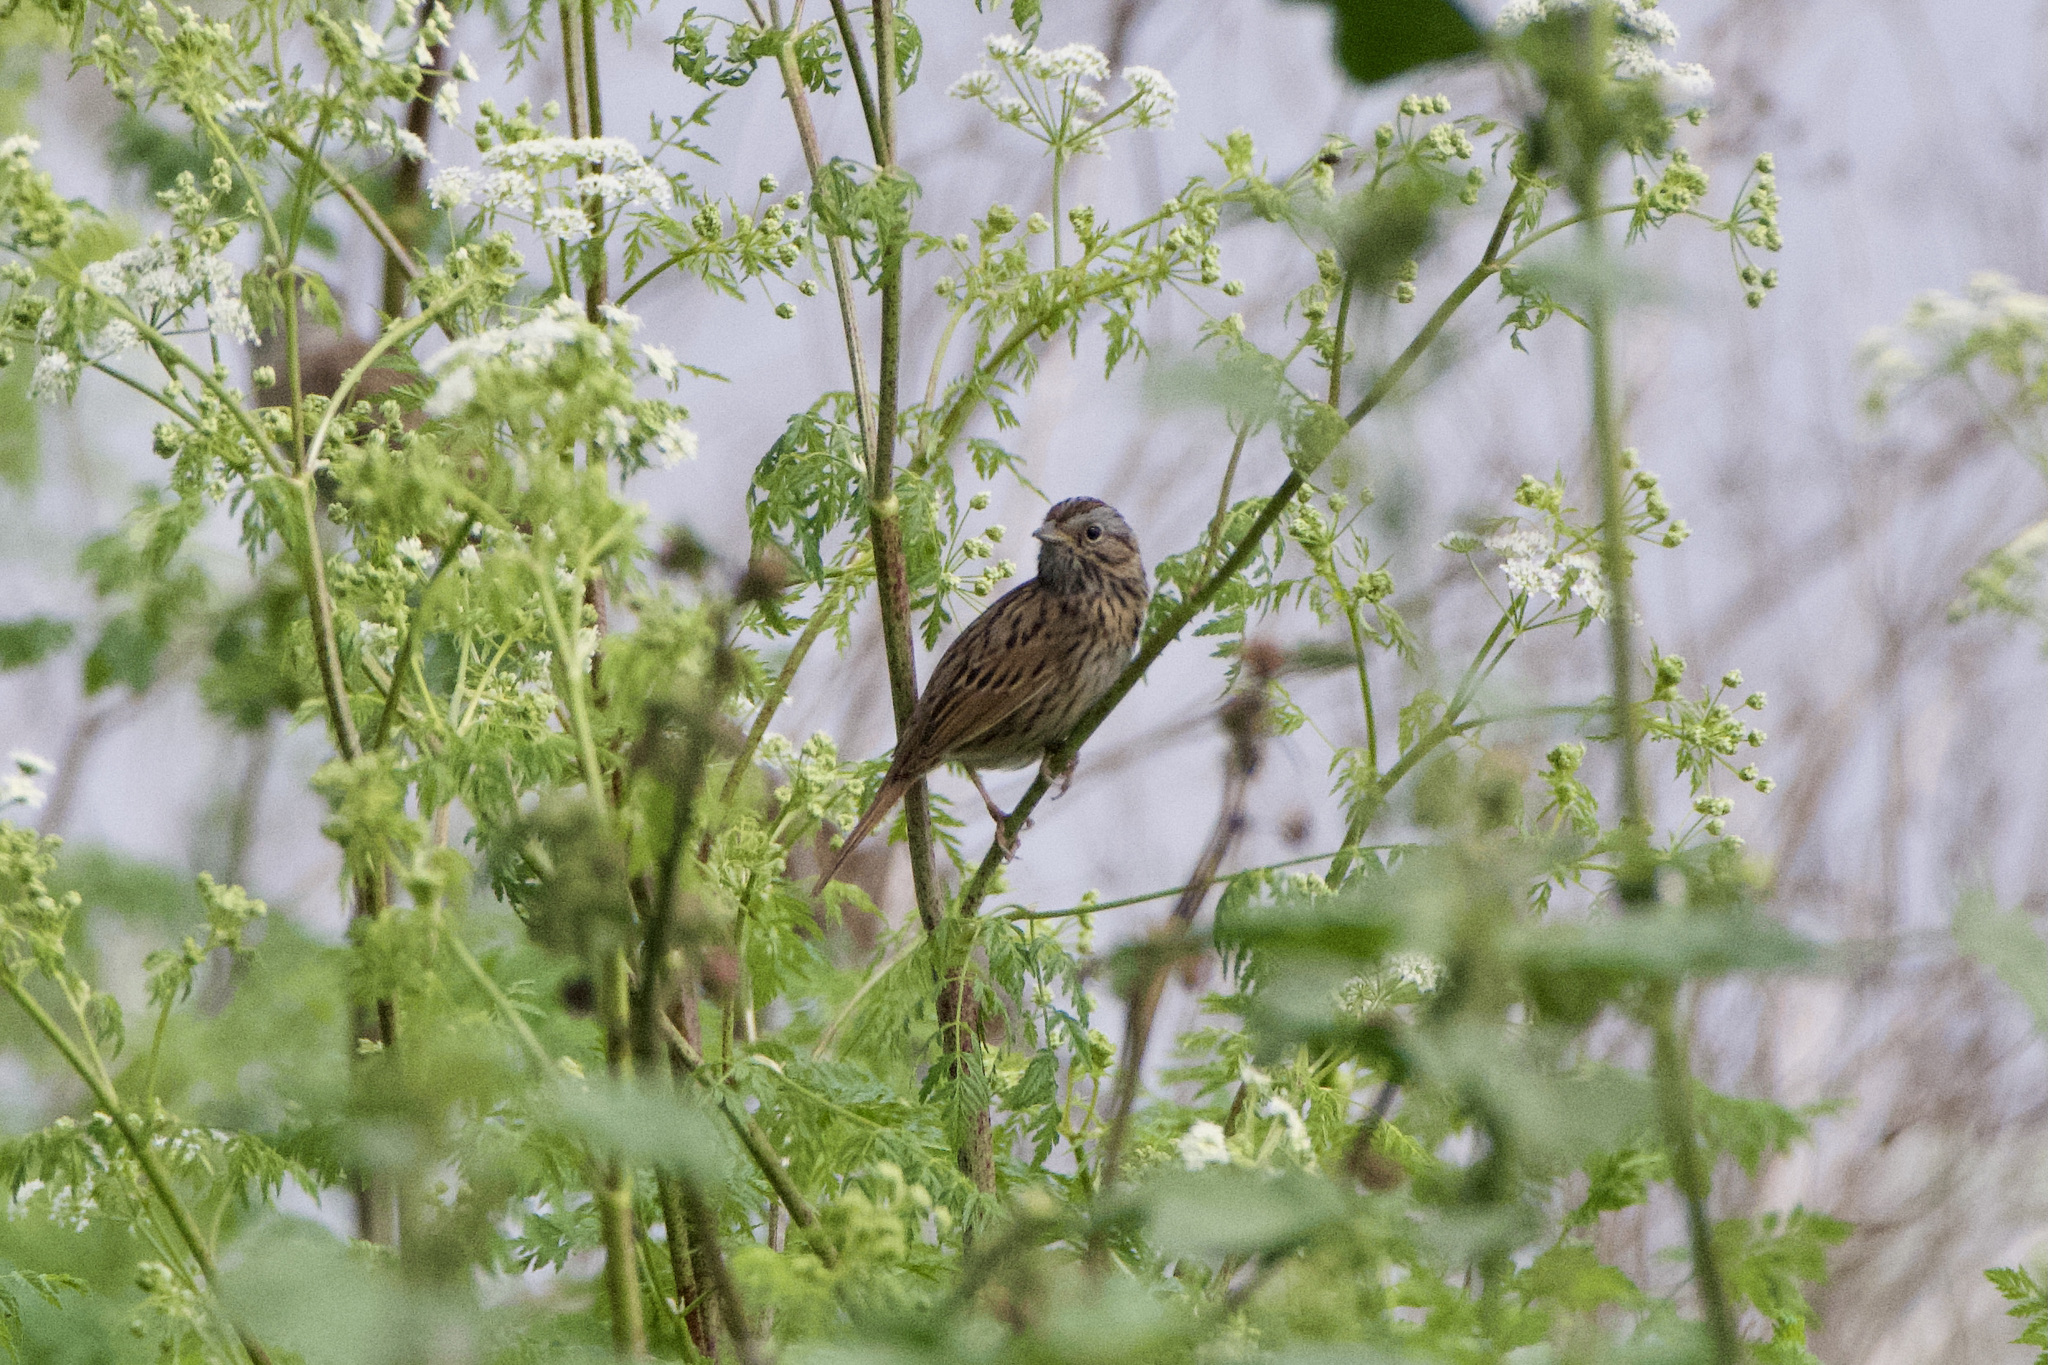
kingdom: Animalia
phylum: Chordata
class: Aves
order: Passeriformes
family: Passerellidae
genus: Melospiza
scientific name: Melospiza lincolnii
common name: Lincoln's sparrow
